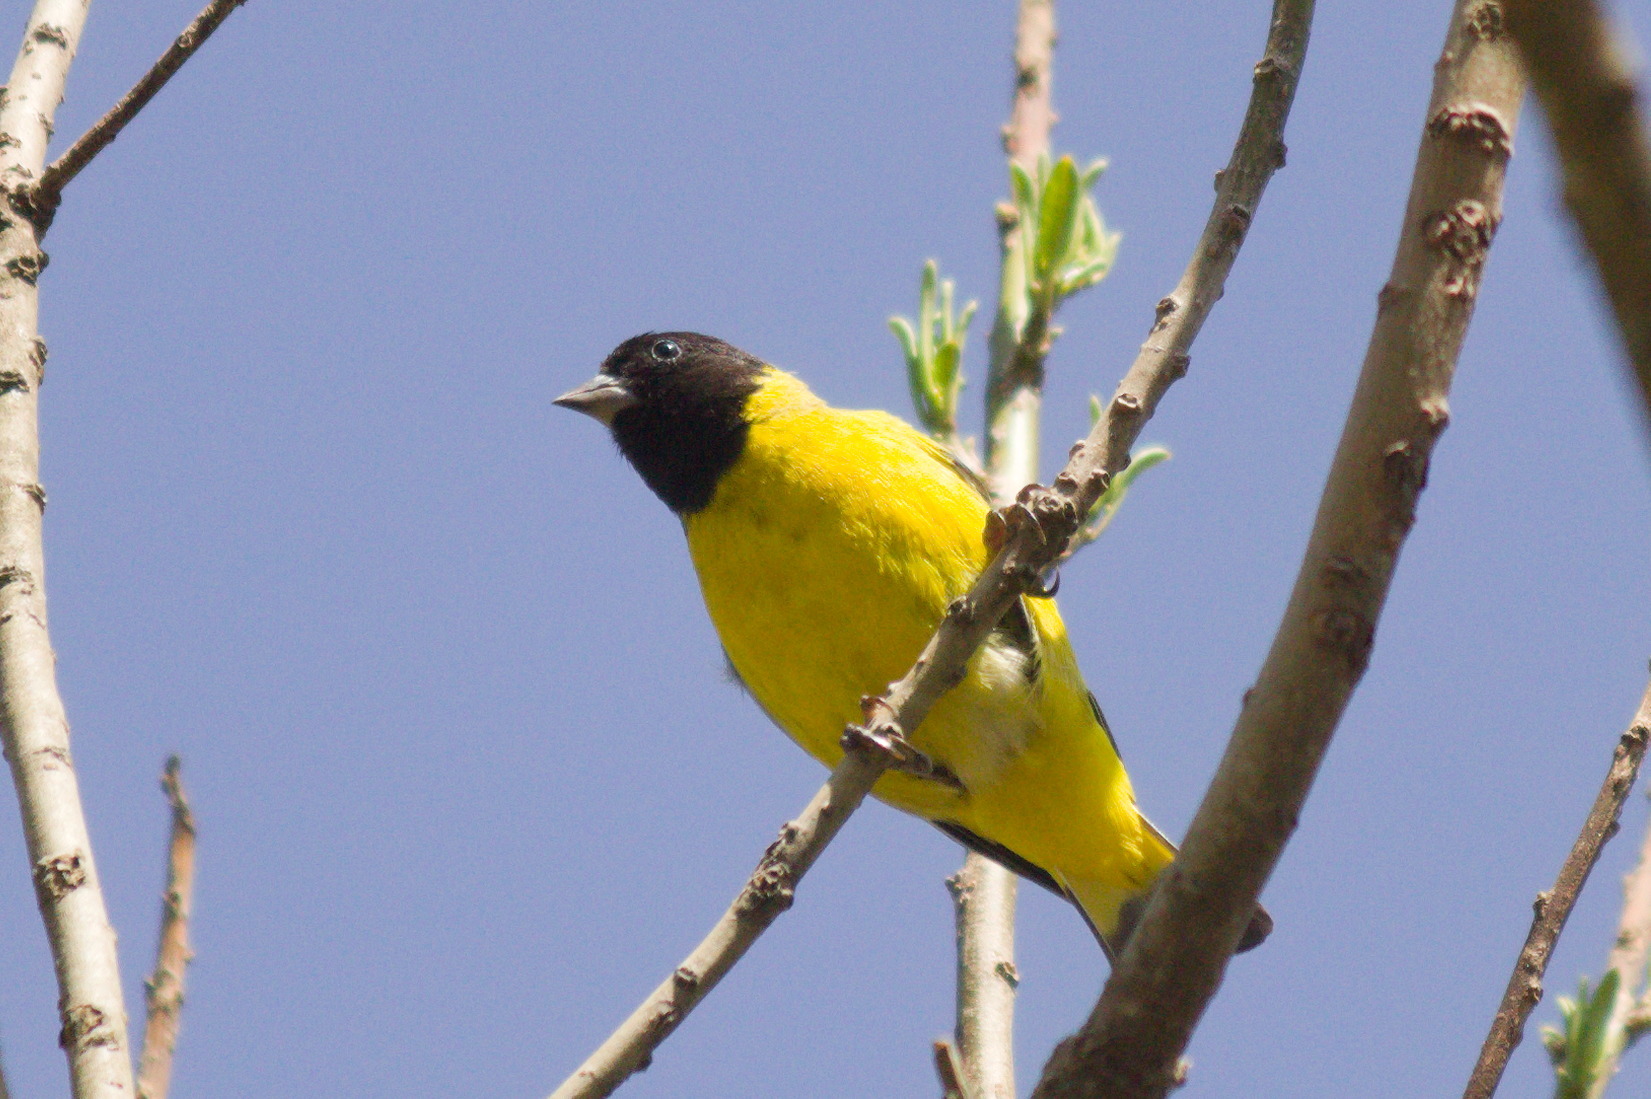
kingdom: Animalia
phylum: Chordata
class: Aves
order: Passeriformes
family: Fringillidae
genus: Spinus
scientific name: Spinus magellanicus
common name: Hooded siskin
